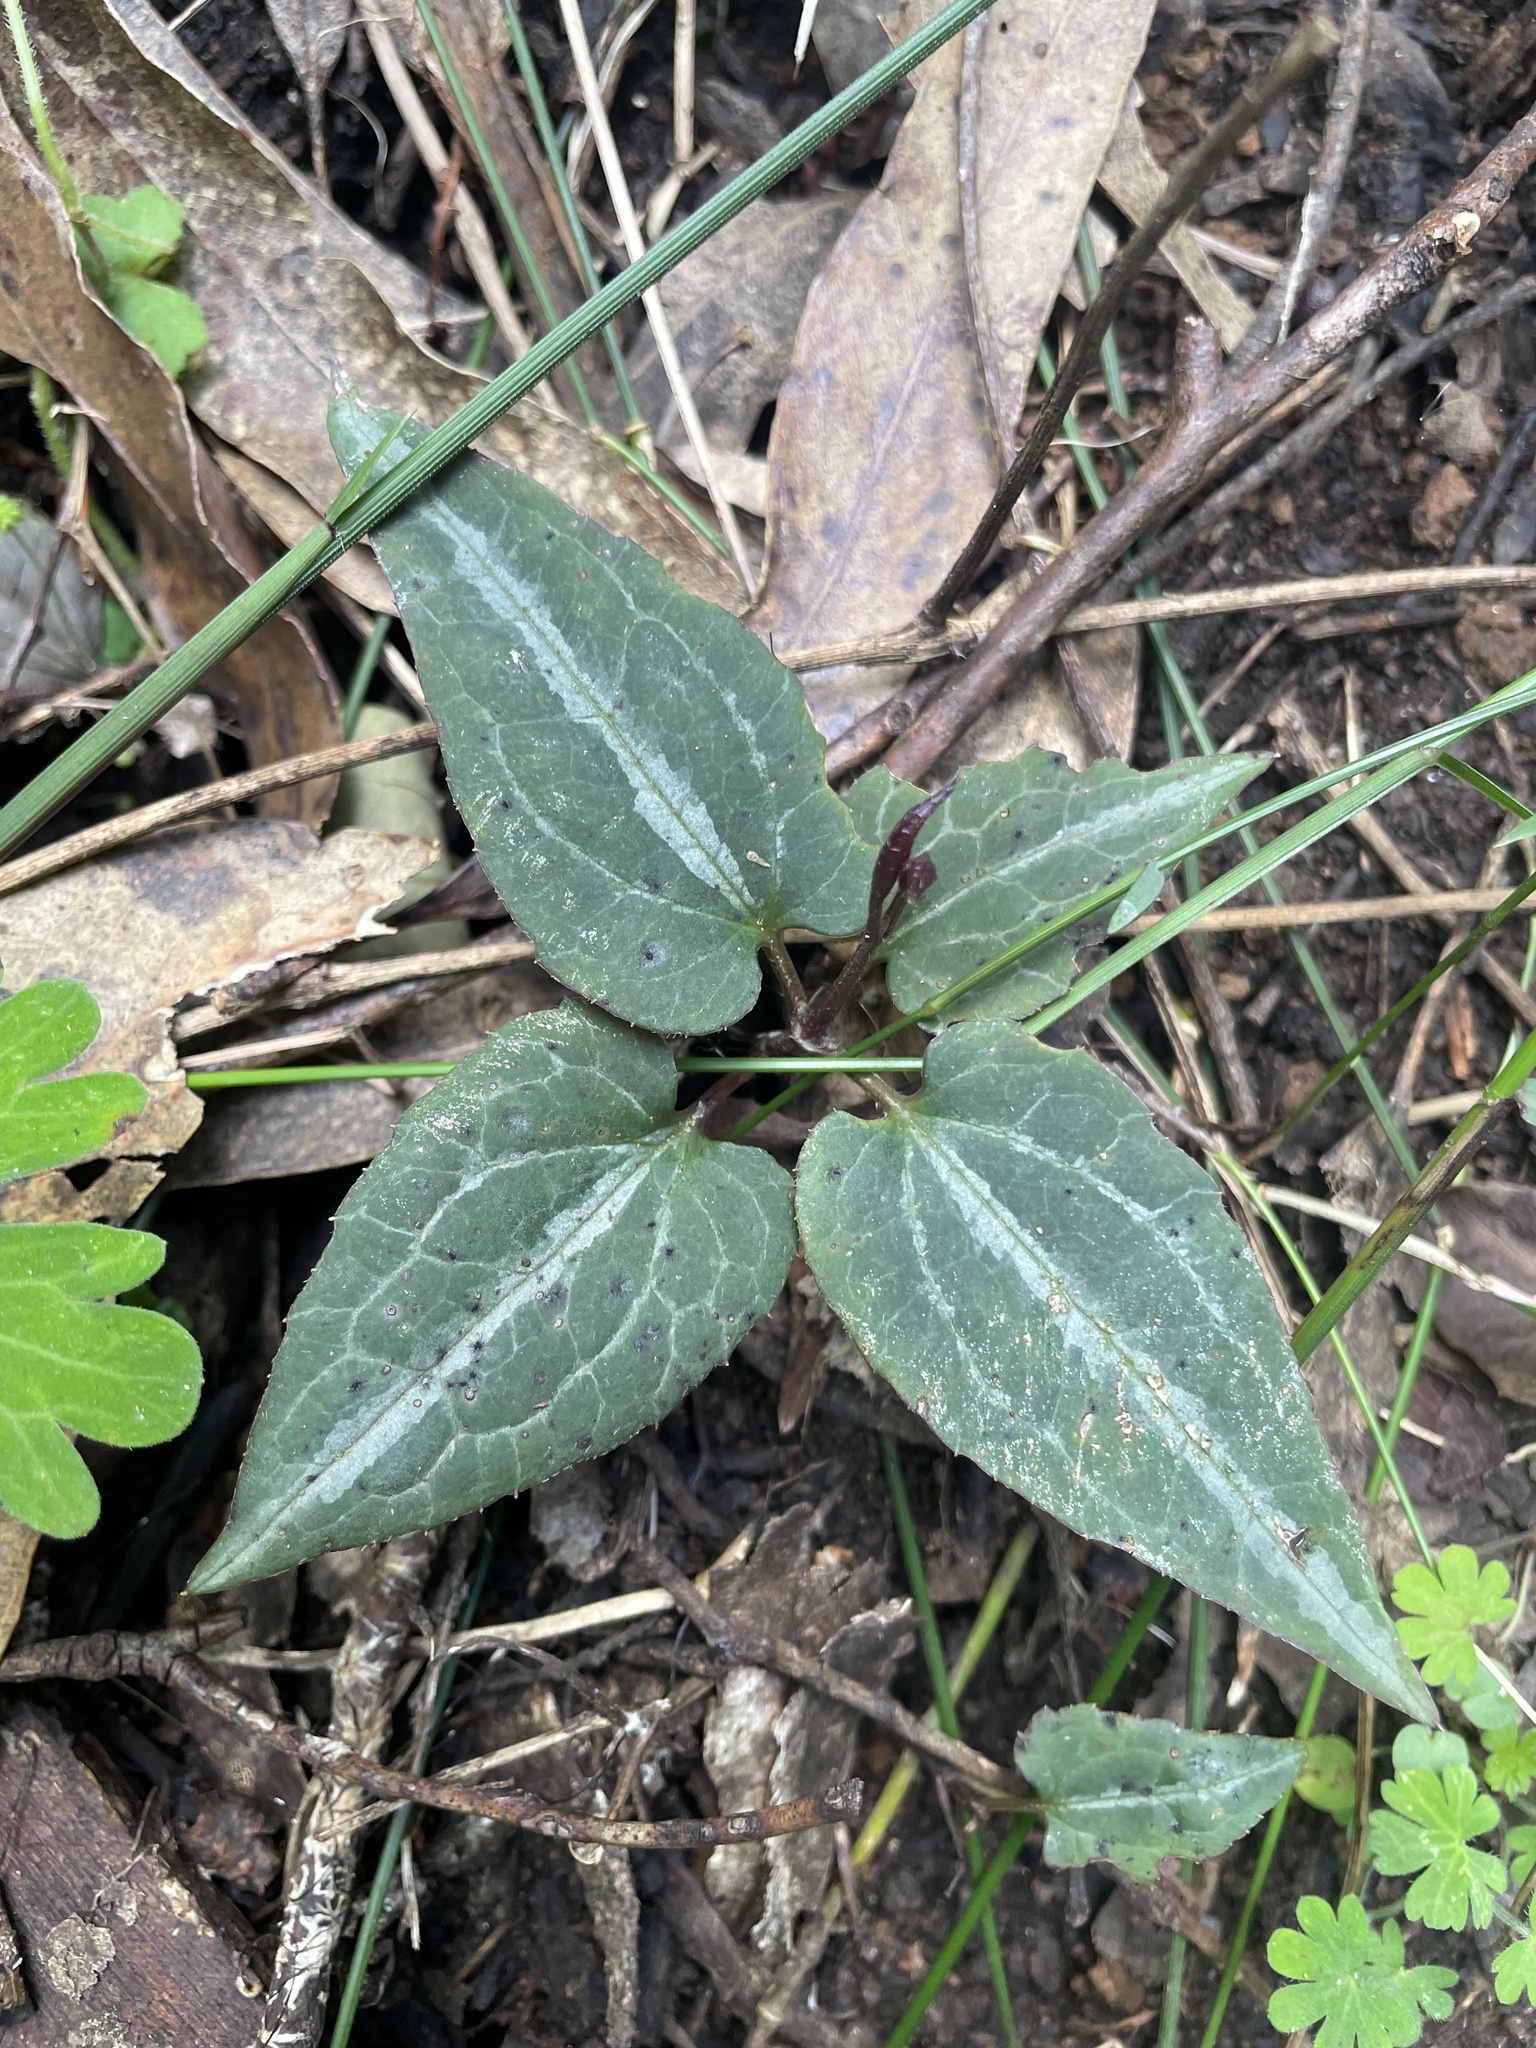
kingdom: Plantae
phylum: Tracheophyta
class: Magnoliopsida
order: Ranunculales
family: Ranunculaceae
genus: Clematis
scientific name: Clematis aristata
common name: Mountain clematis
